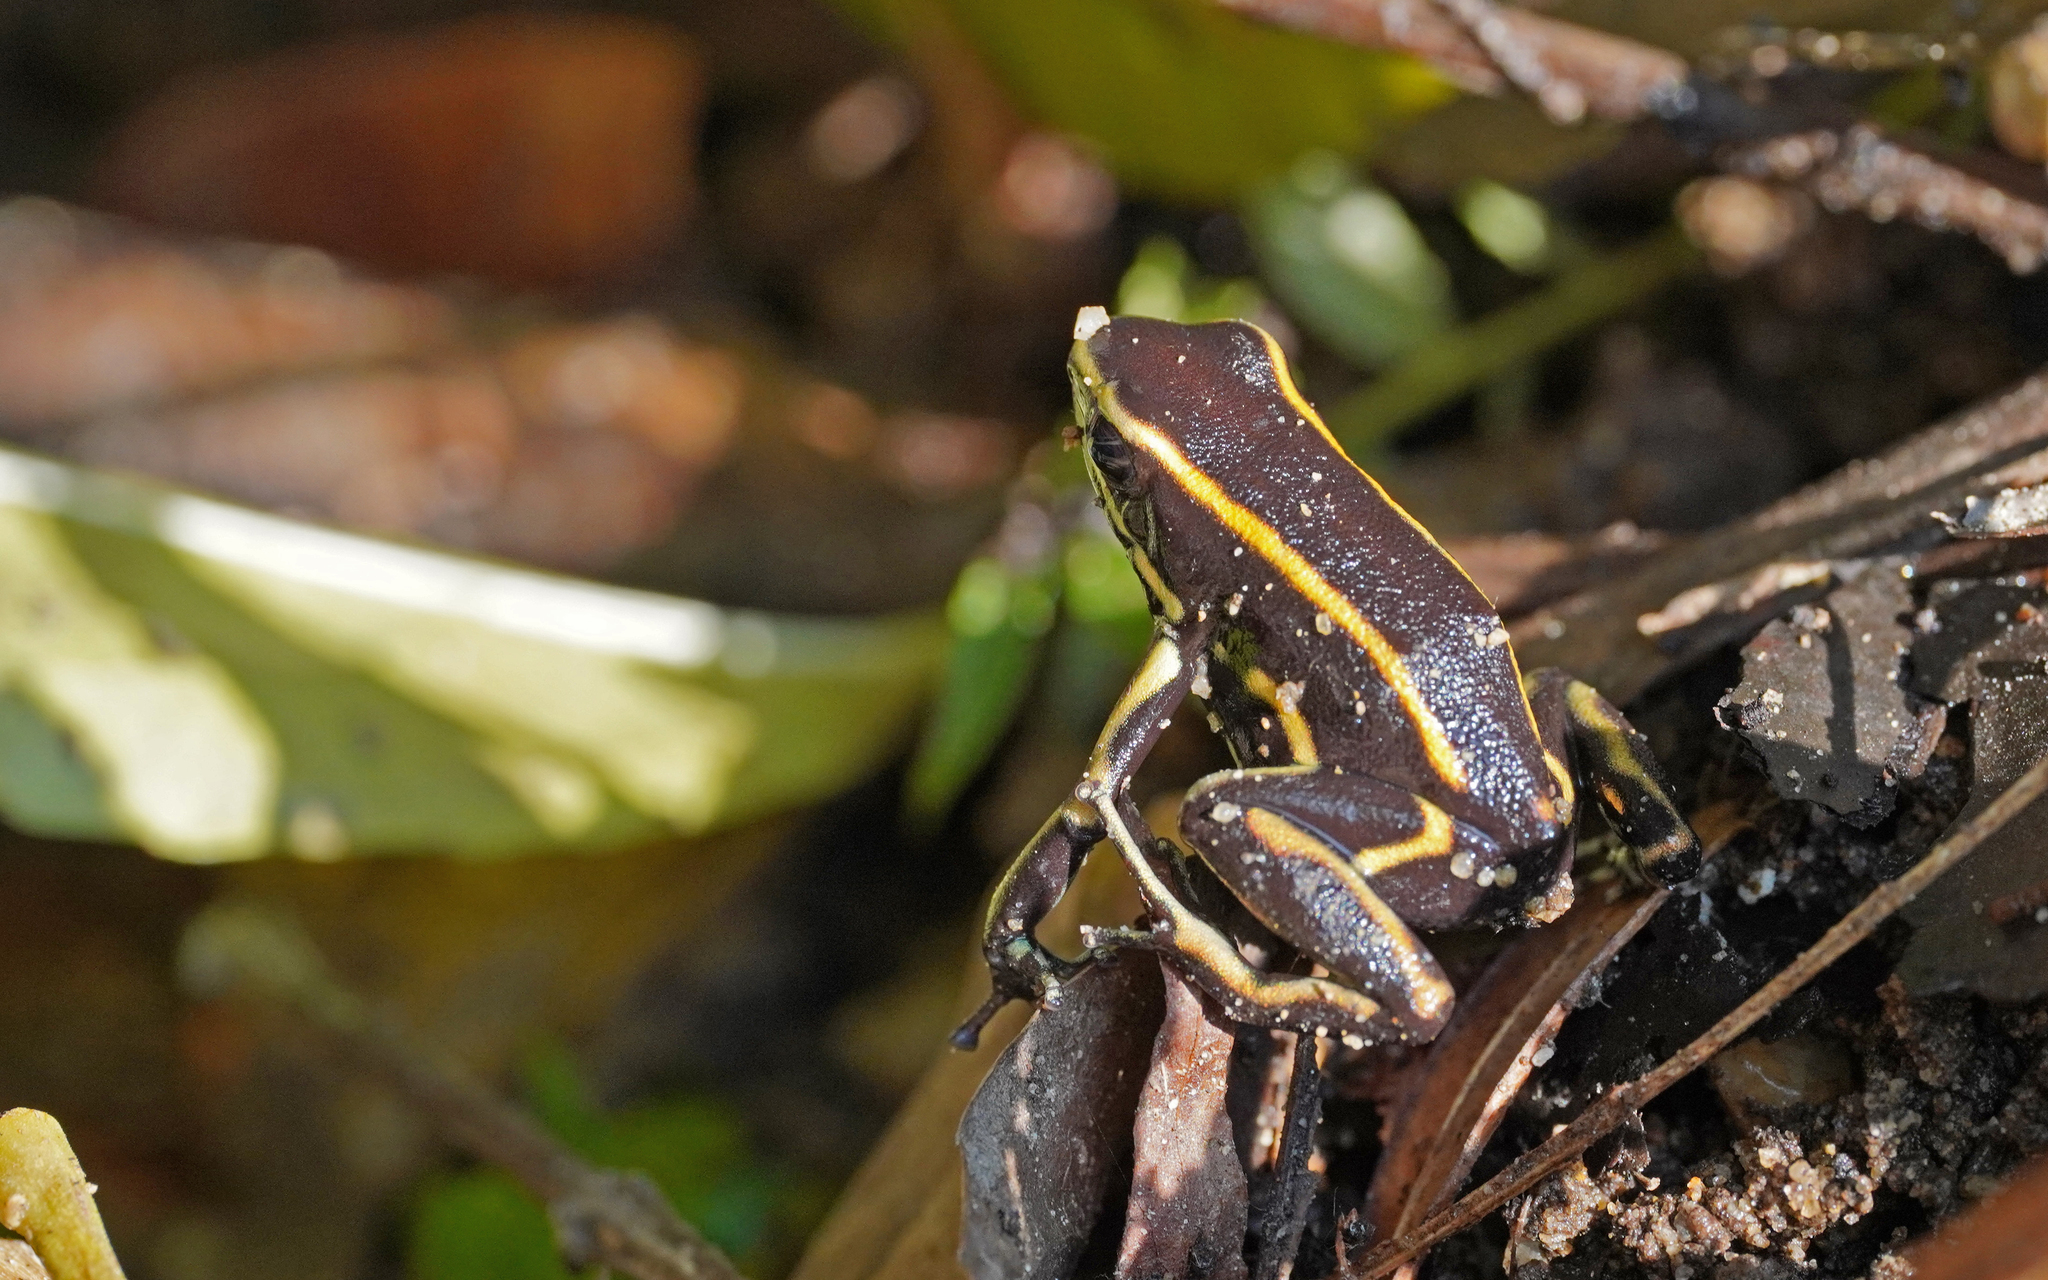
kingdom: Animalia
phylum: Chordata
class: Amphibia
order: Anura
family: Dendrobatidae
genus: Dendrobates
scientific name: Dendrobates truncatus
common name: Yellow-striped poison frog
